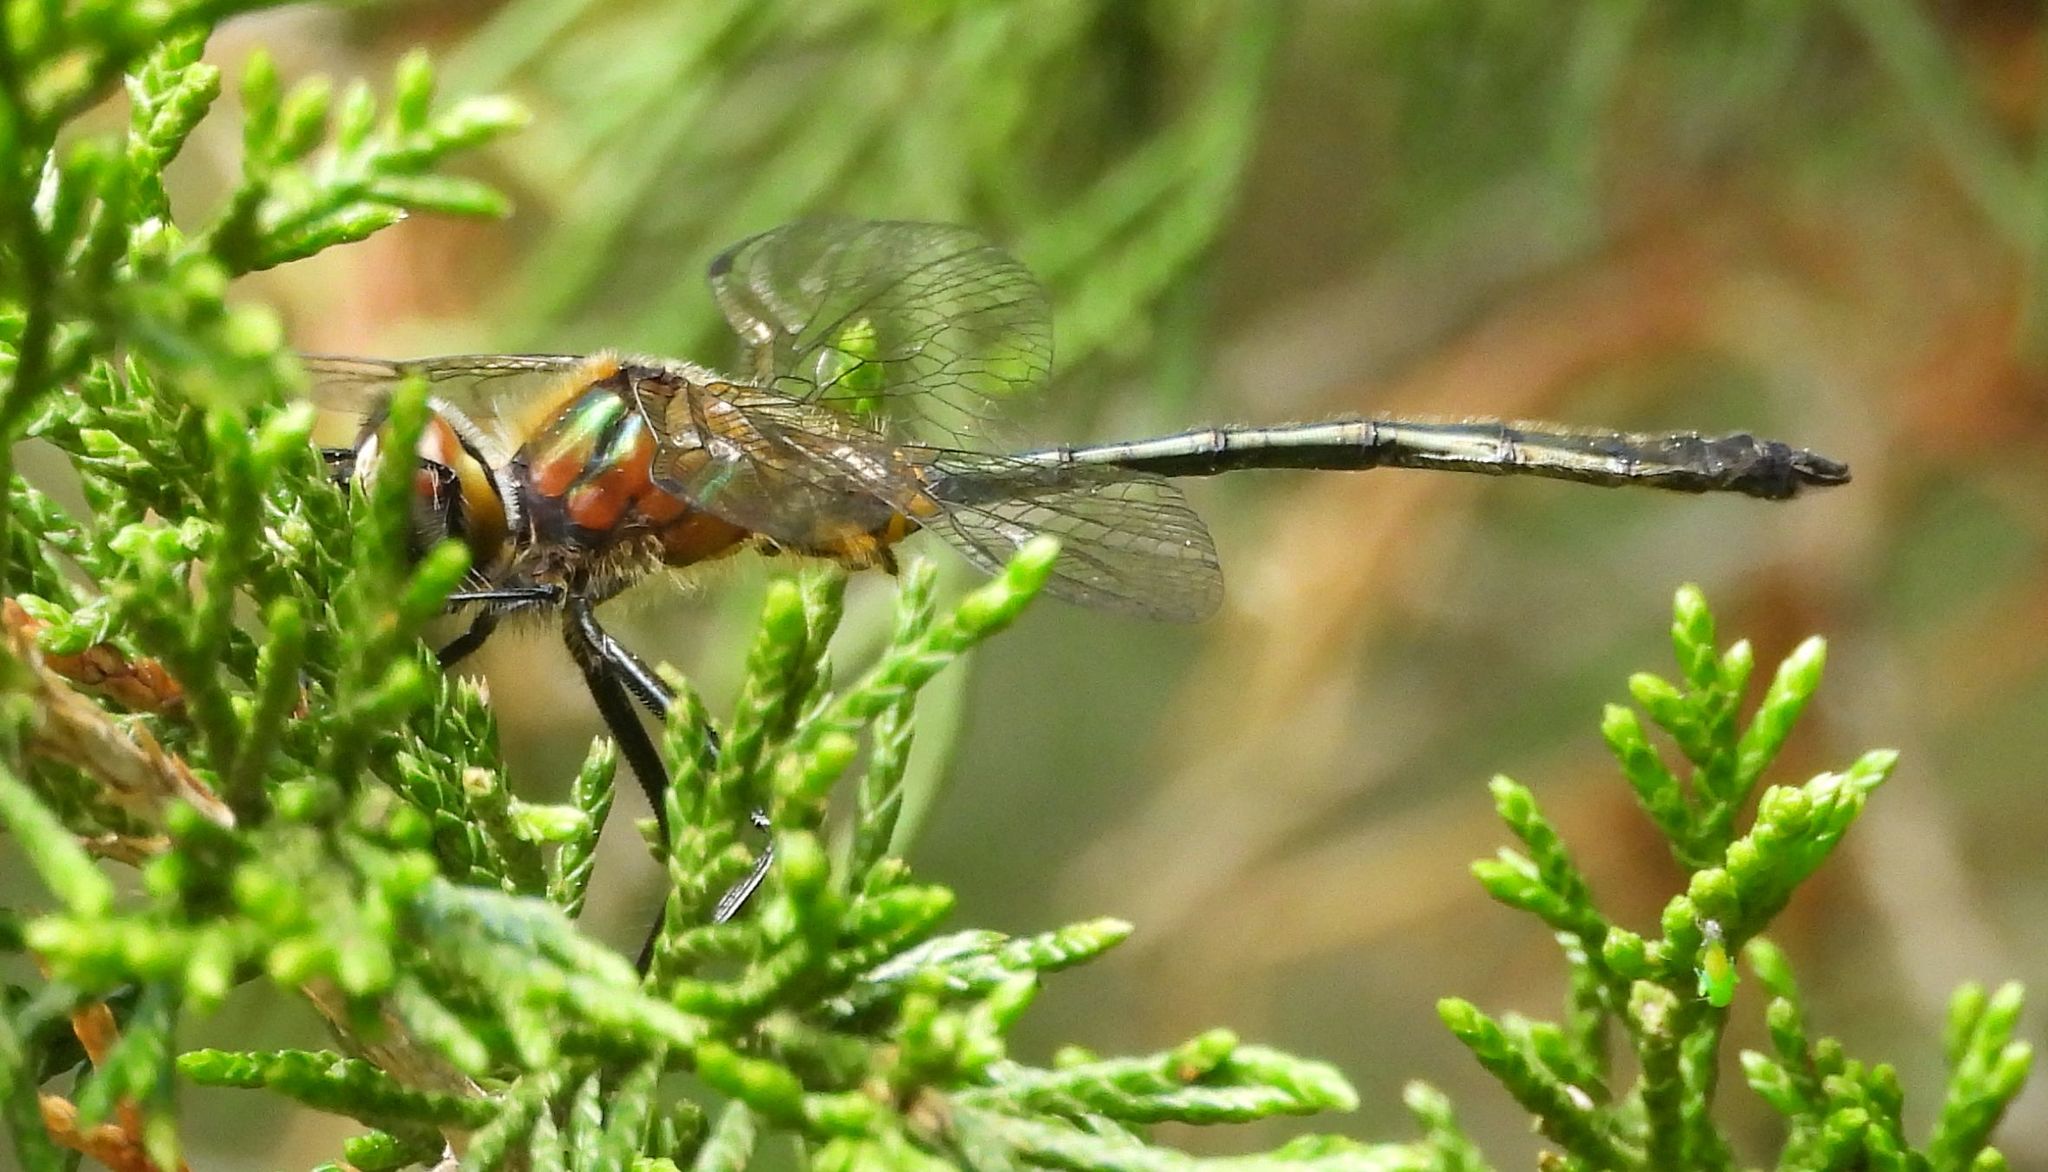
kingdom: Animalia
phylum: Arthropoda
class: Insecta
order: Odonata
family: Corduliidae
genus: Dorocordulia
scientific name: Dorocordulia libera
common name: Racket-tailed emerald
